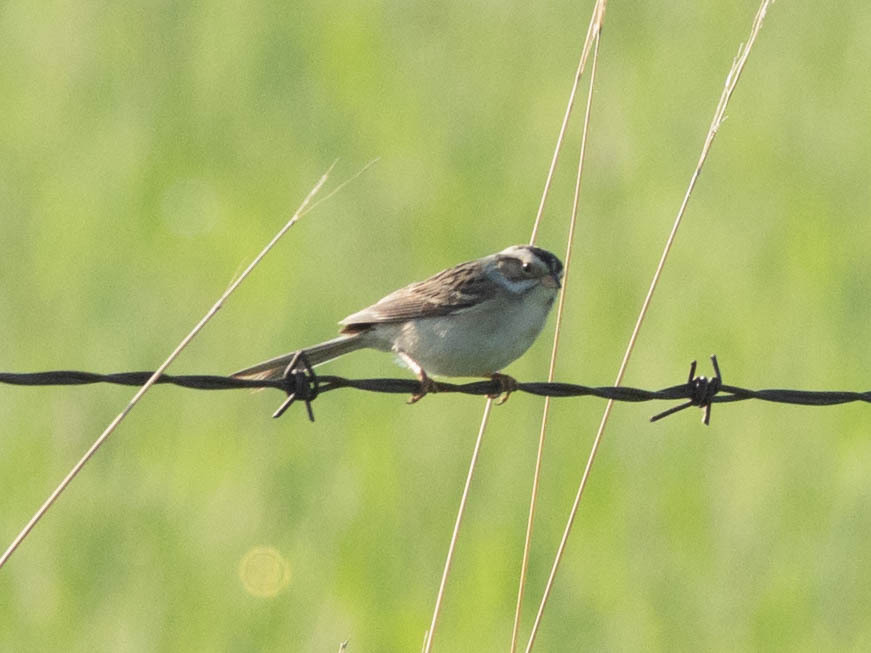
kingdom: Animalia
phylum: Chordata
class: Aves
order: Passeriformes
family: Passerellidae
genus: Spizella
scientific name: Spizella pallida
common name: Clay-colored sparrow
